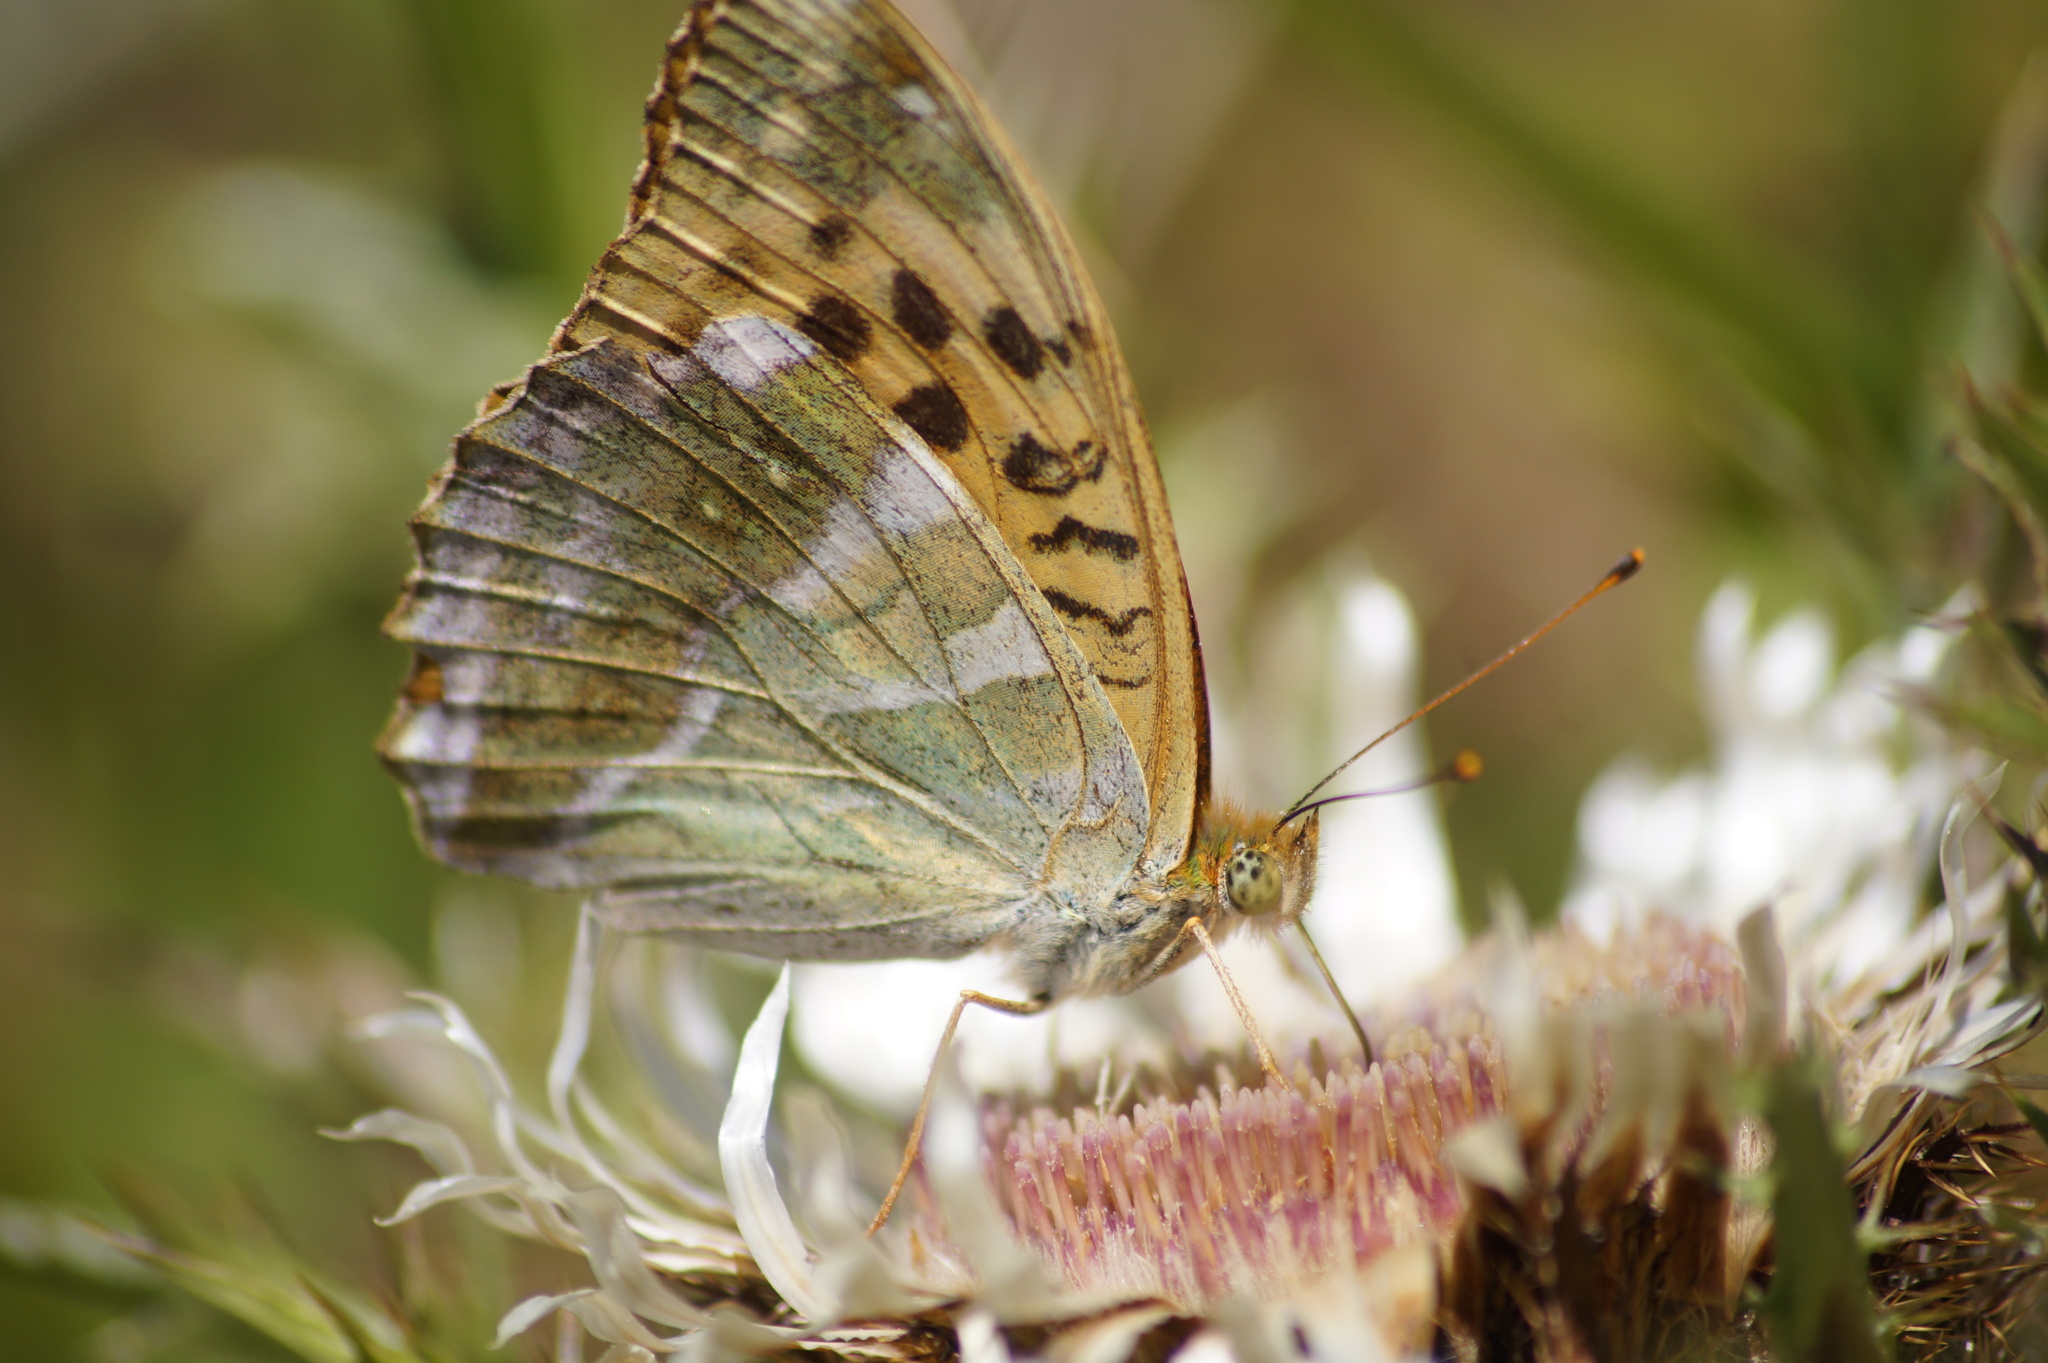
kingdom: Animalia
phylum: Arthropoda
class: Insecta
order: Lepidoptera
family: Nymphalidae
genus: Argynnis
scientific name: Argynnis paphia
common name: Silver-washed fritillary
